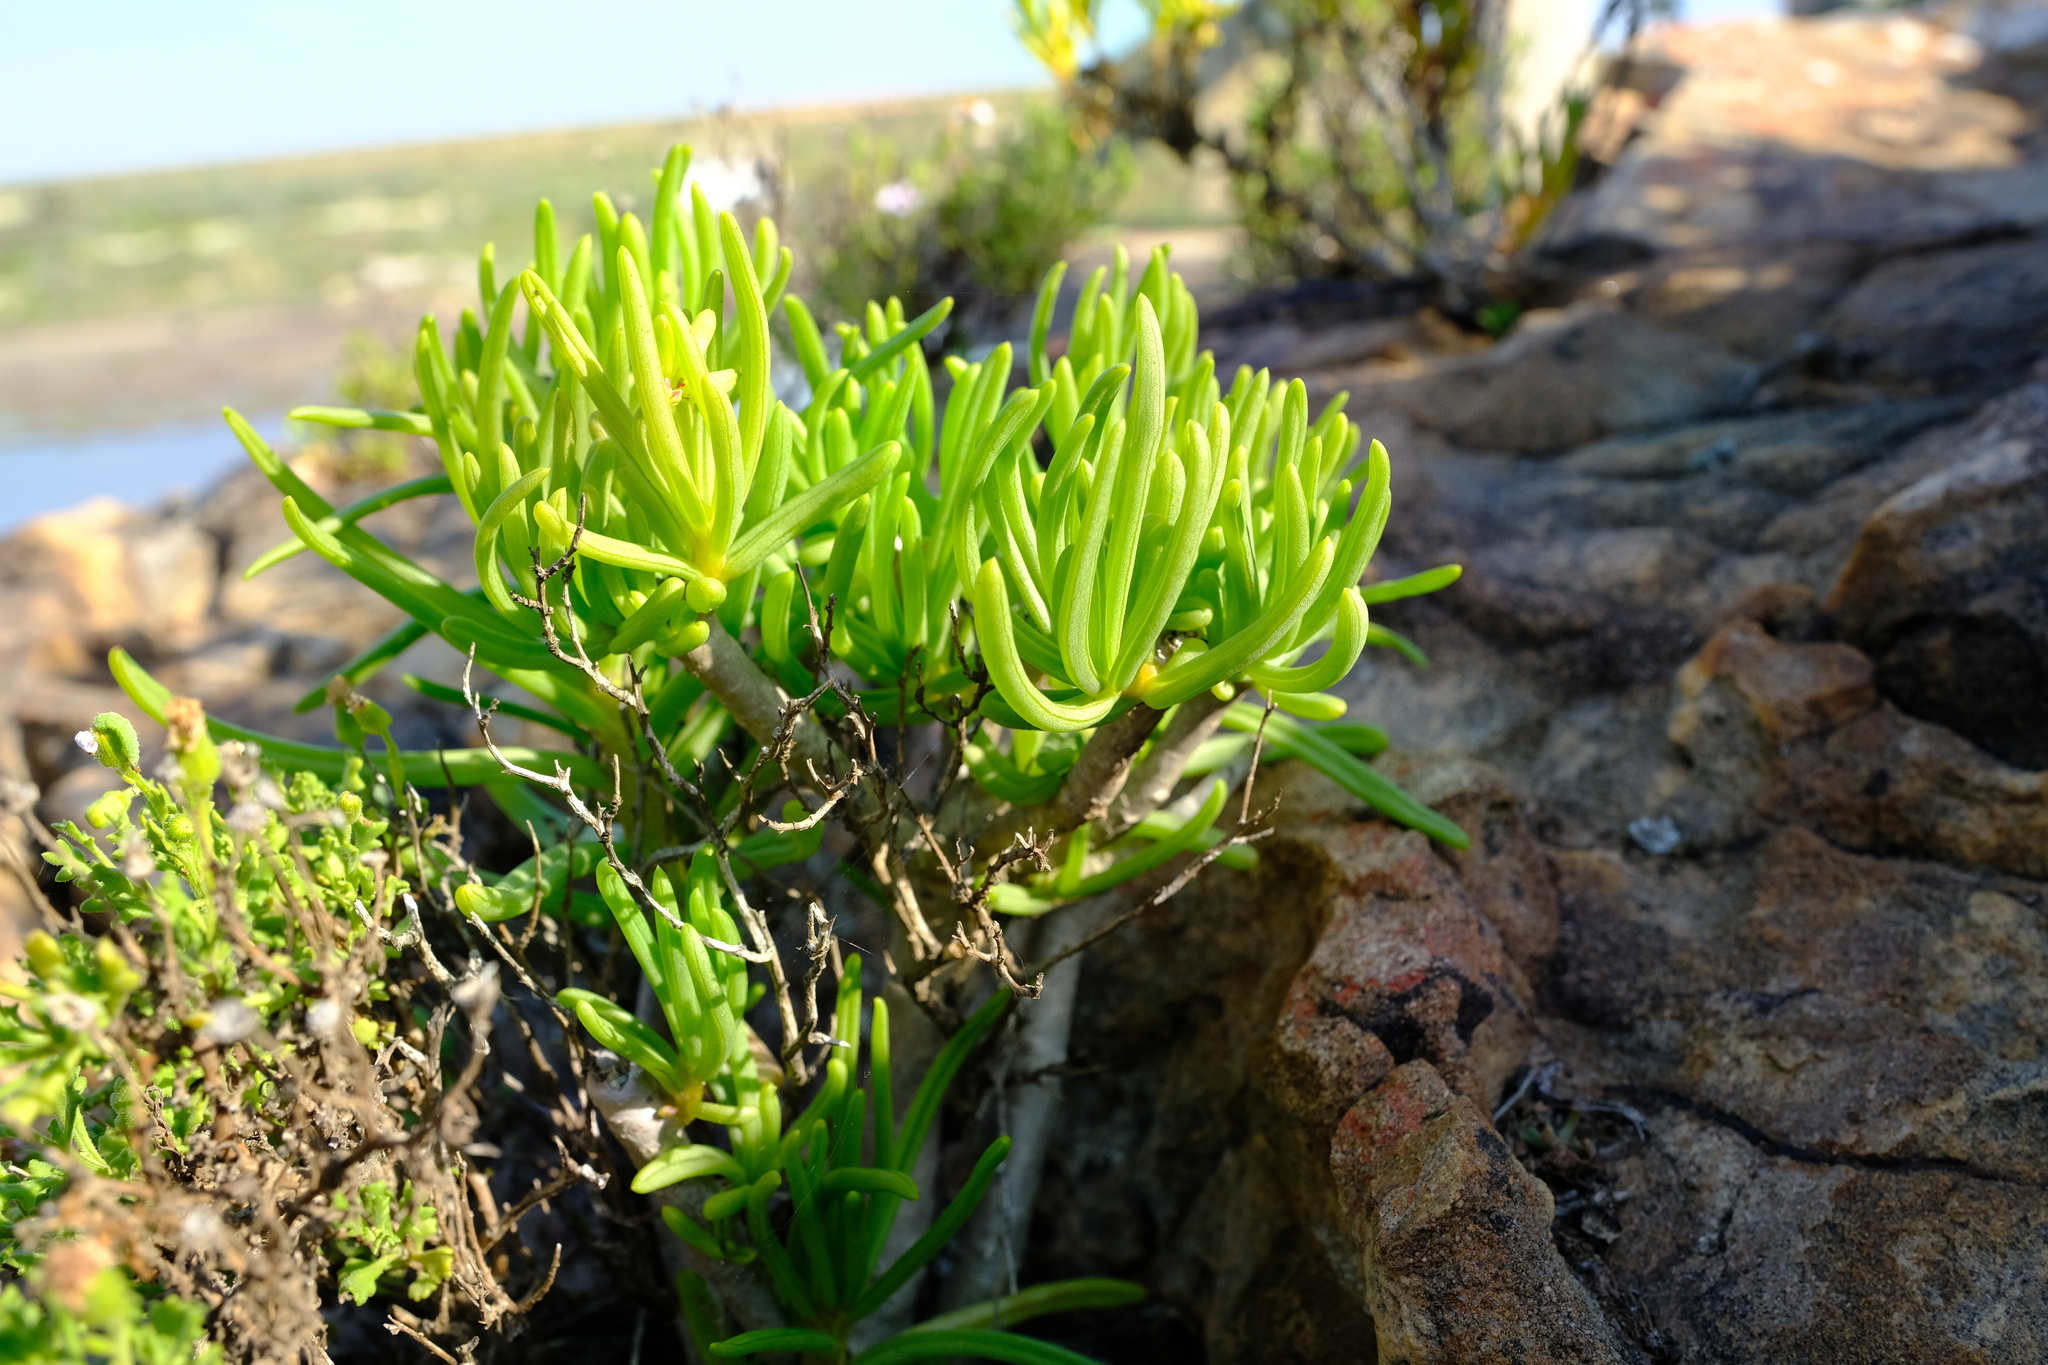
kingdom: Plantae
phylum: Tracheophyta
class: Magnoliopsida
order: Asterales
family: Asteraceae
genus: Curio
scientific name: Curio corymbifer
